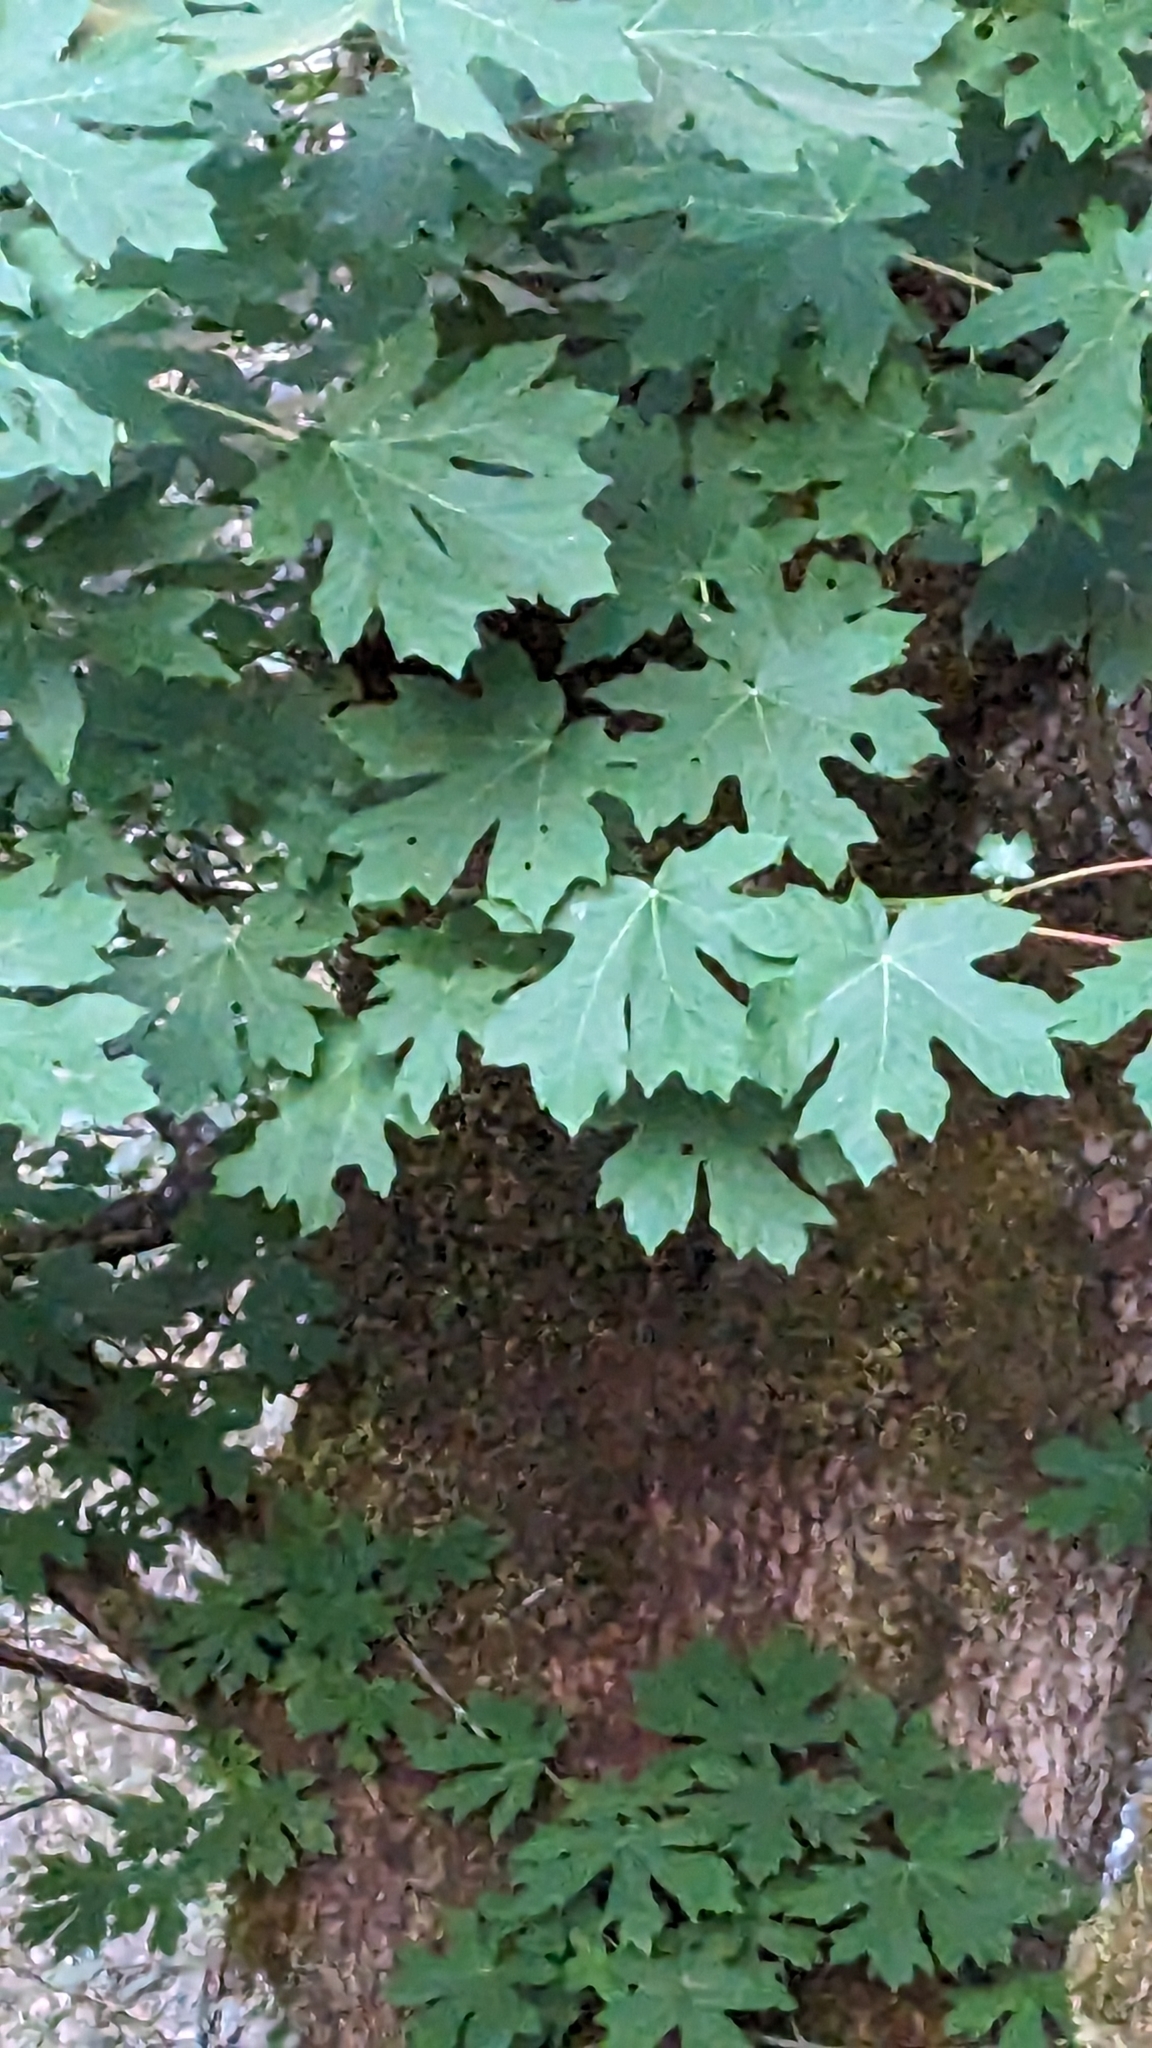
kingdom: Plantae
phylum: Tracheophyta
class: Magnoliopsida
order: Sapindales
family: Sapindaceae
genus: Acer
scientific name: Acer macrophyllum
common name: Oregon maple
